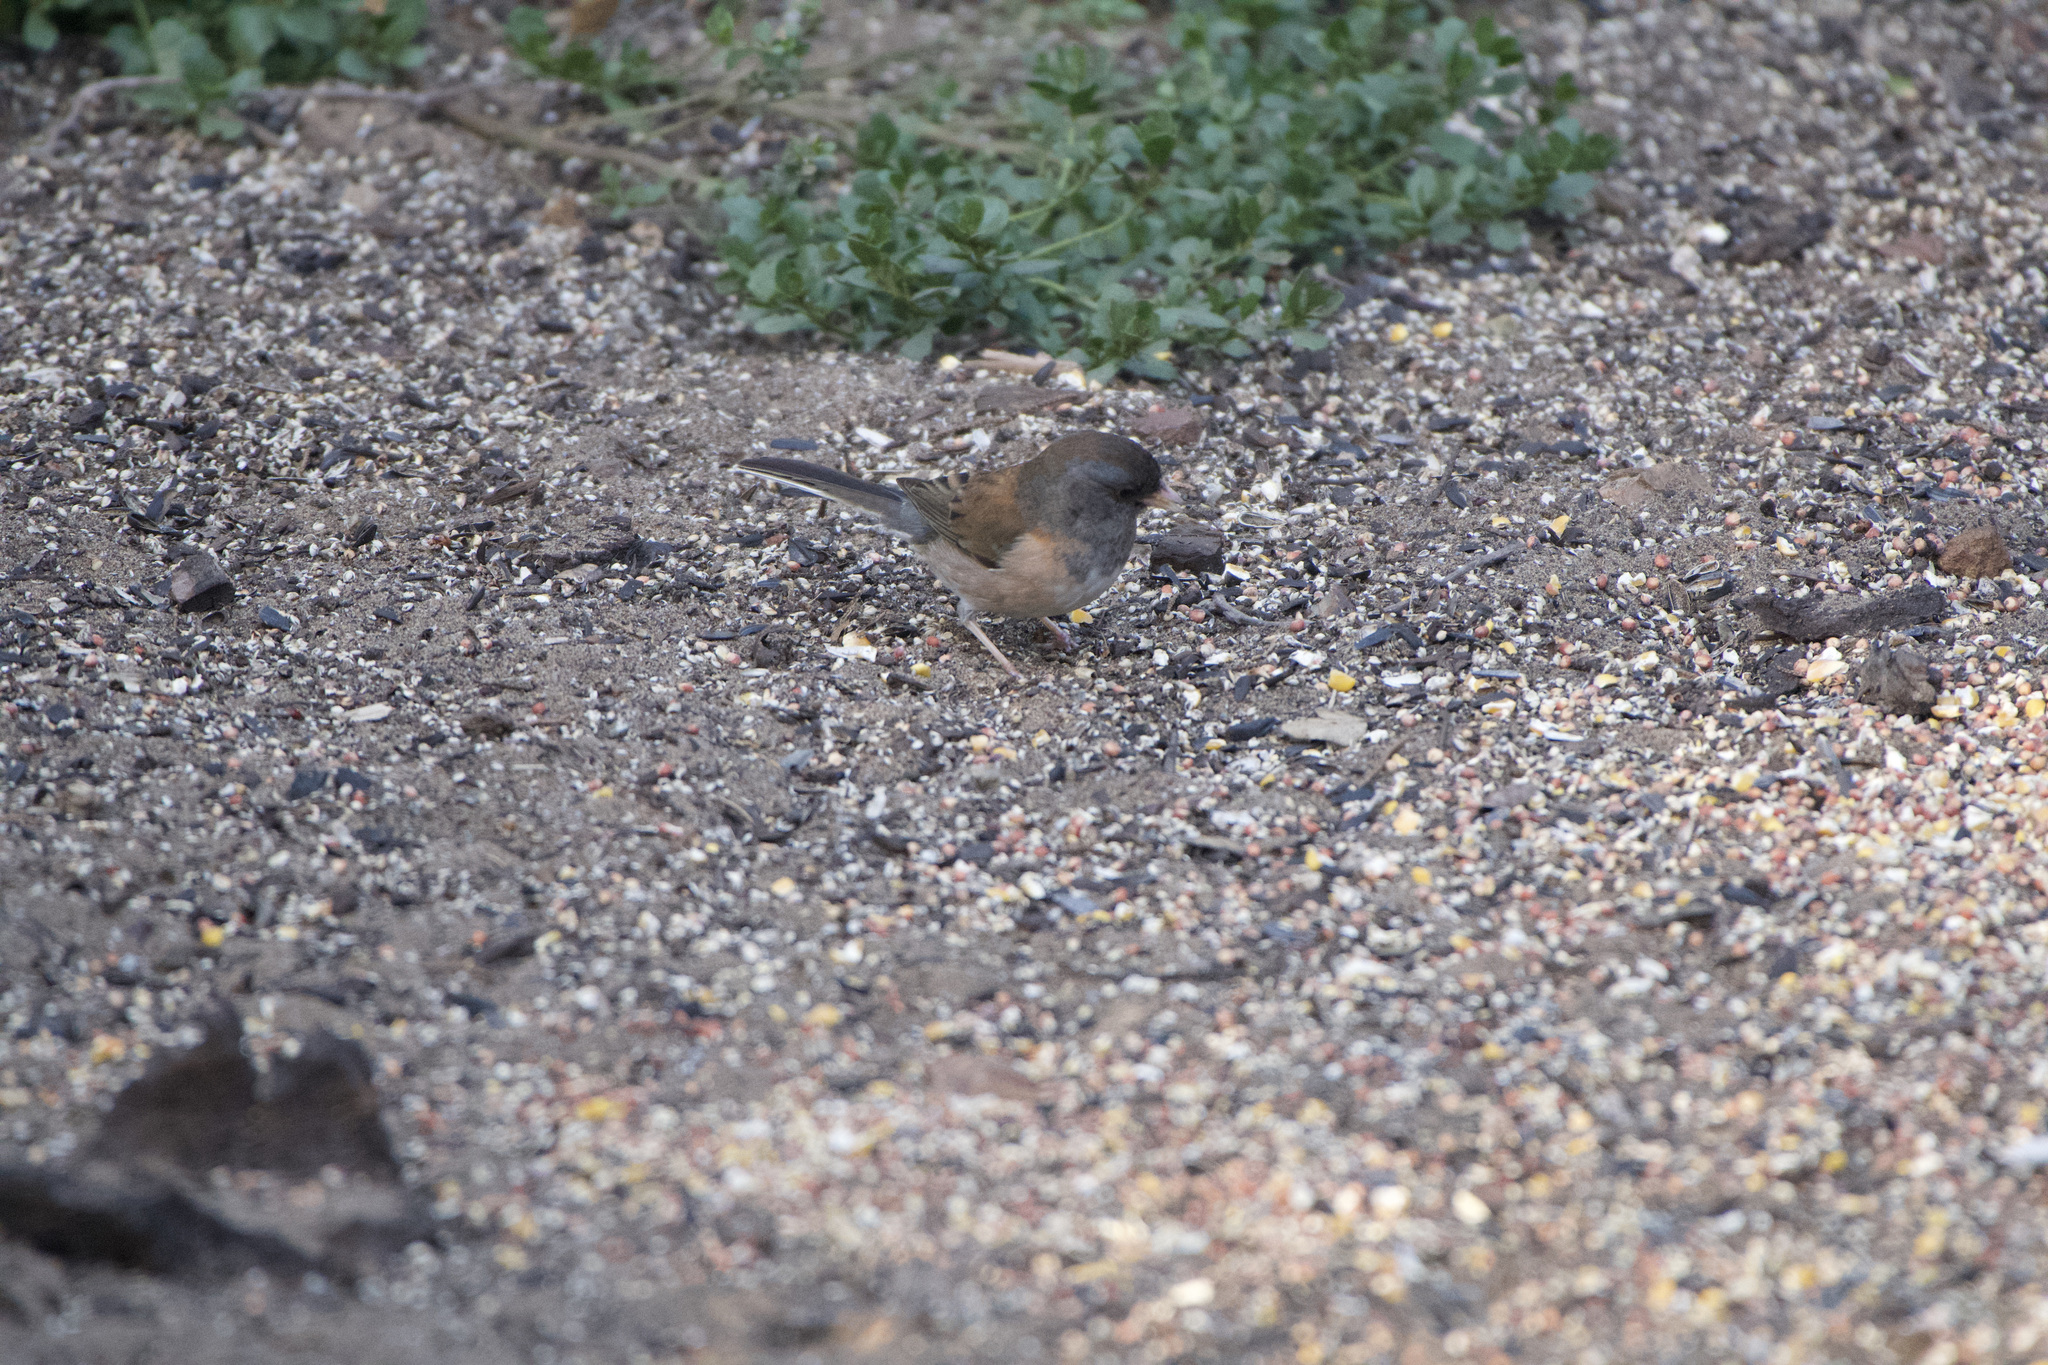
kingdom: Animalia
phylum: Chordata
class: Aves
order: Passeriformes
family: Passerellidae
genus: Junco
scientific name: Junco hyemalis
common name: Dark-eyed junco
